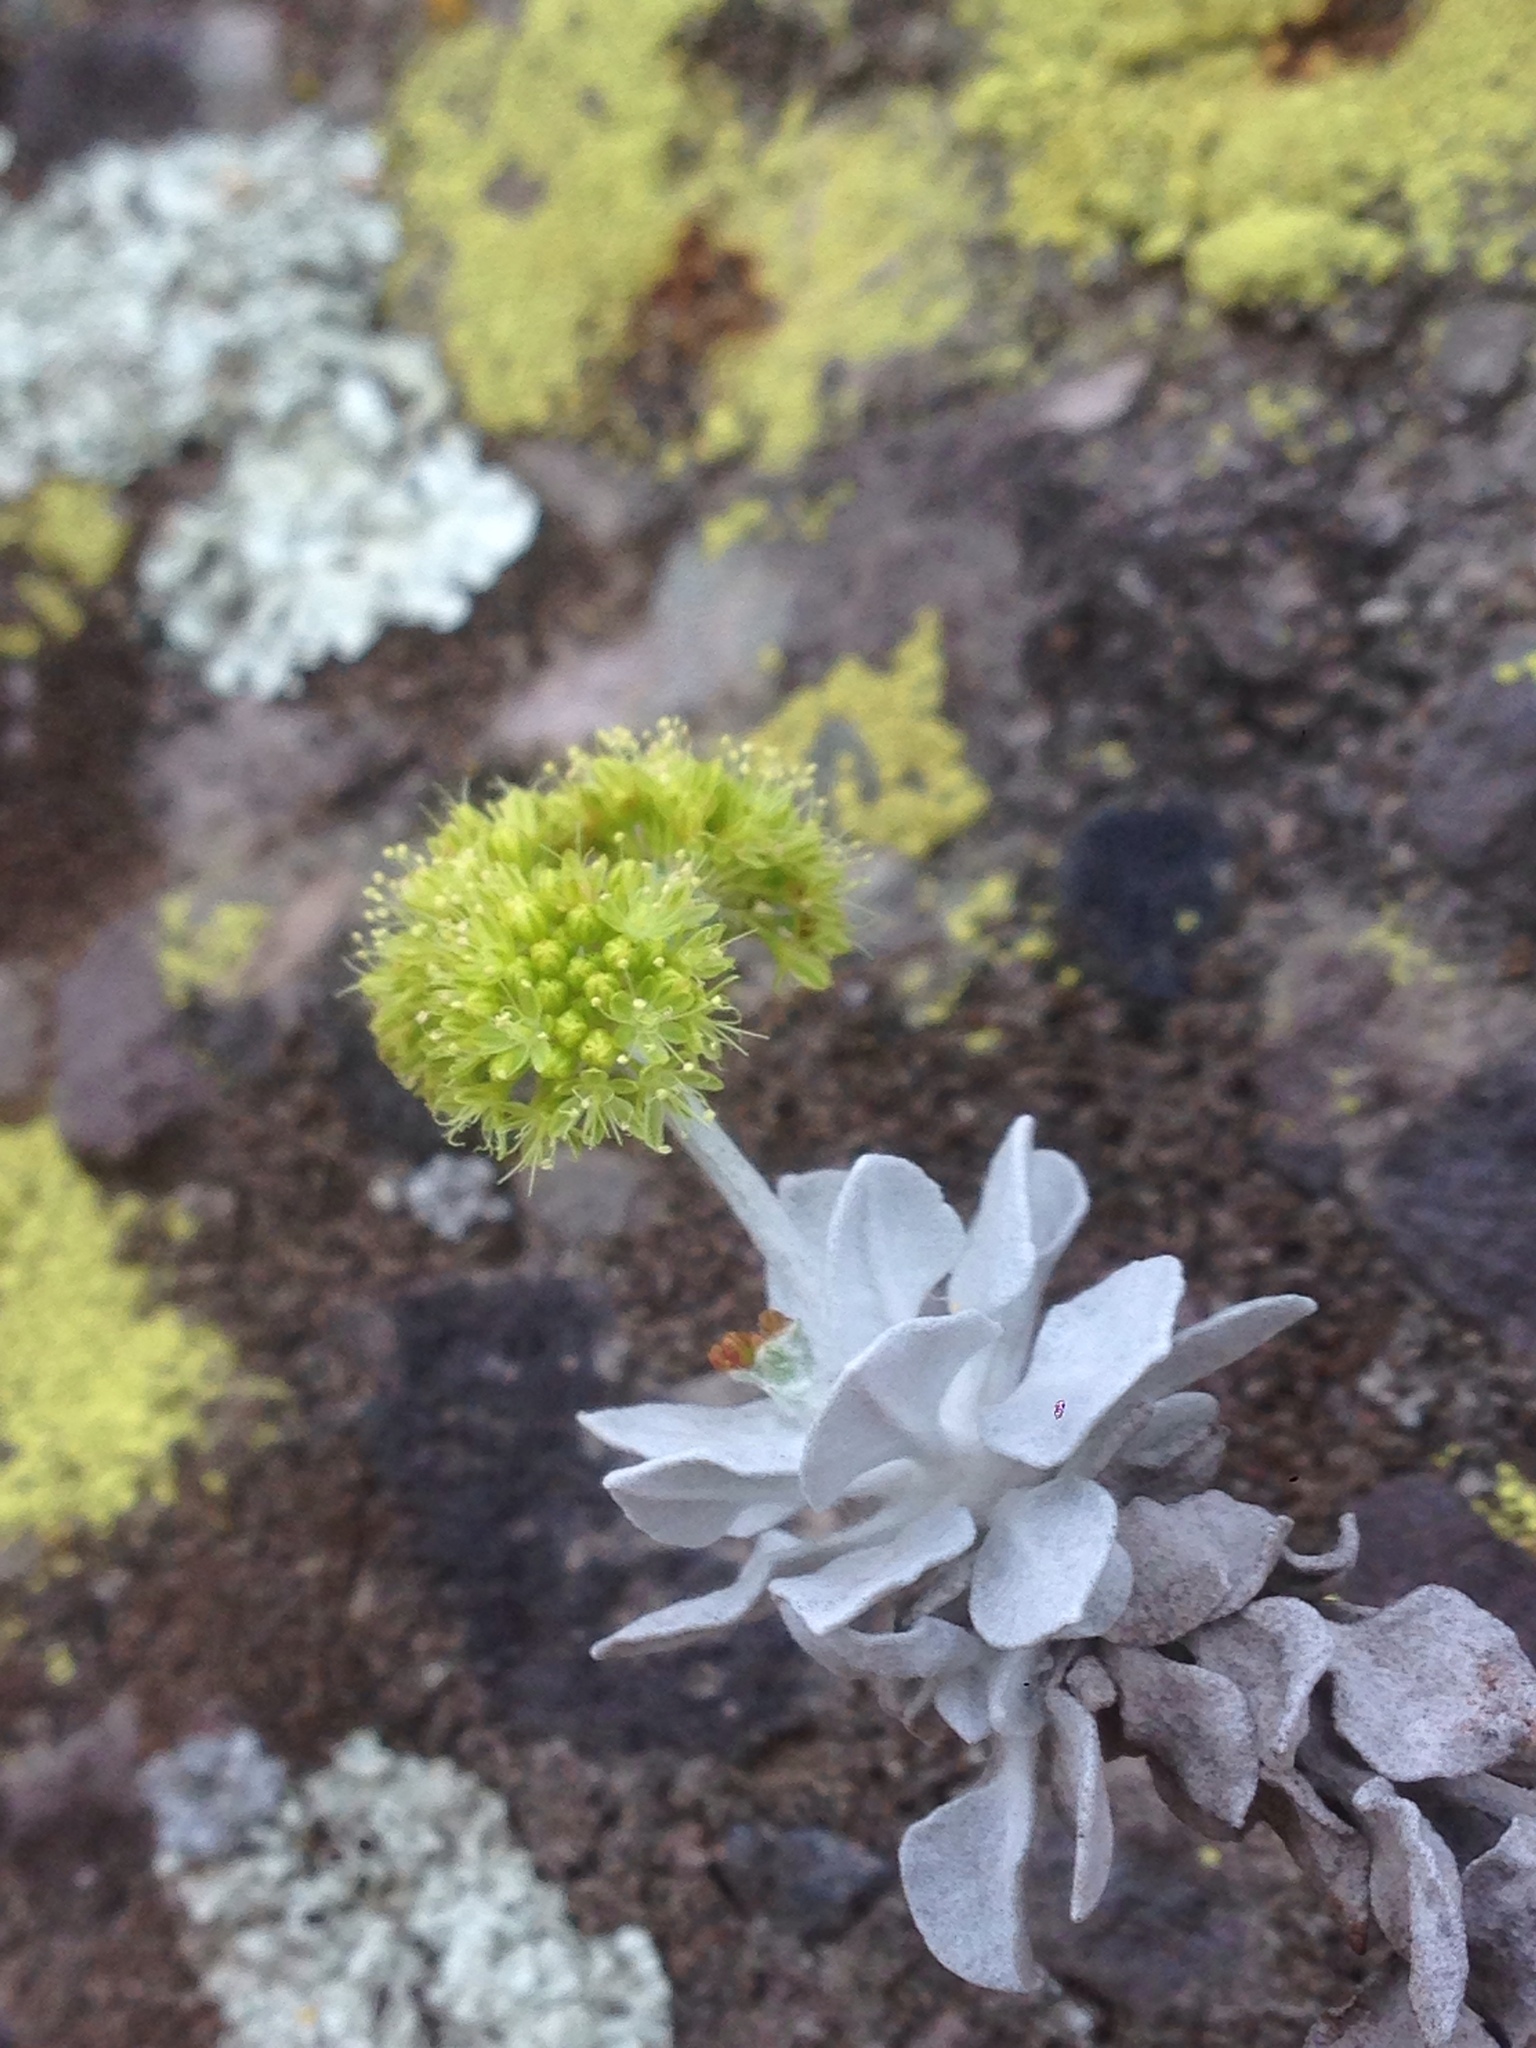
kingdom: Plantae
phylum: Tracheophyta
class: Magnoliopsida
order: Caryophyllales
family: Polygonaceae
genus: Eriogonum
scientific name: Eriogonum crocatum
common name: Saffron wild buckwheat
